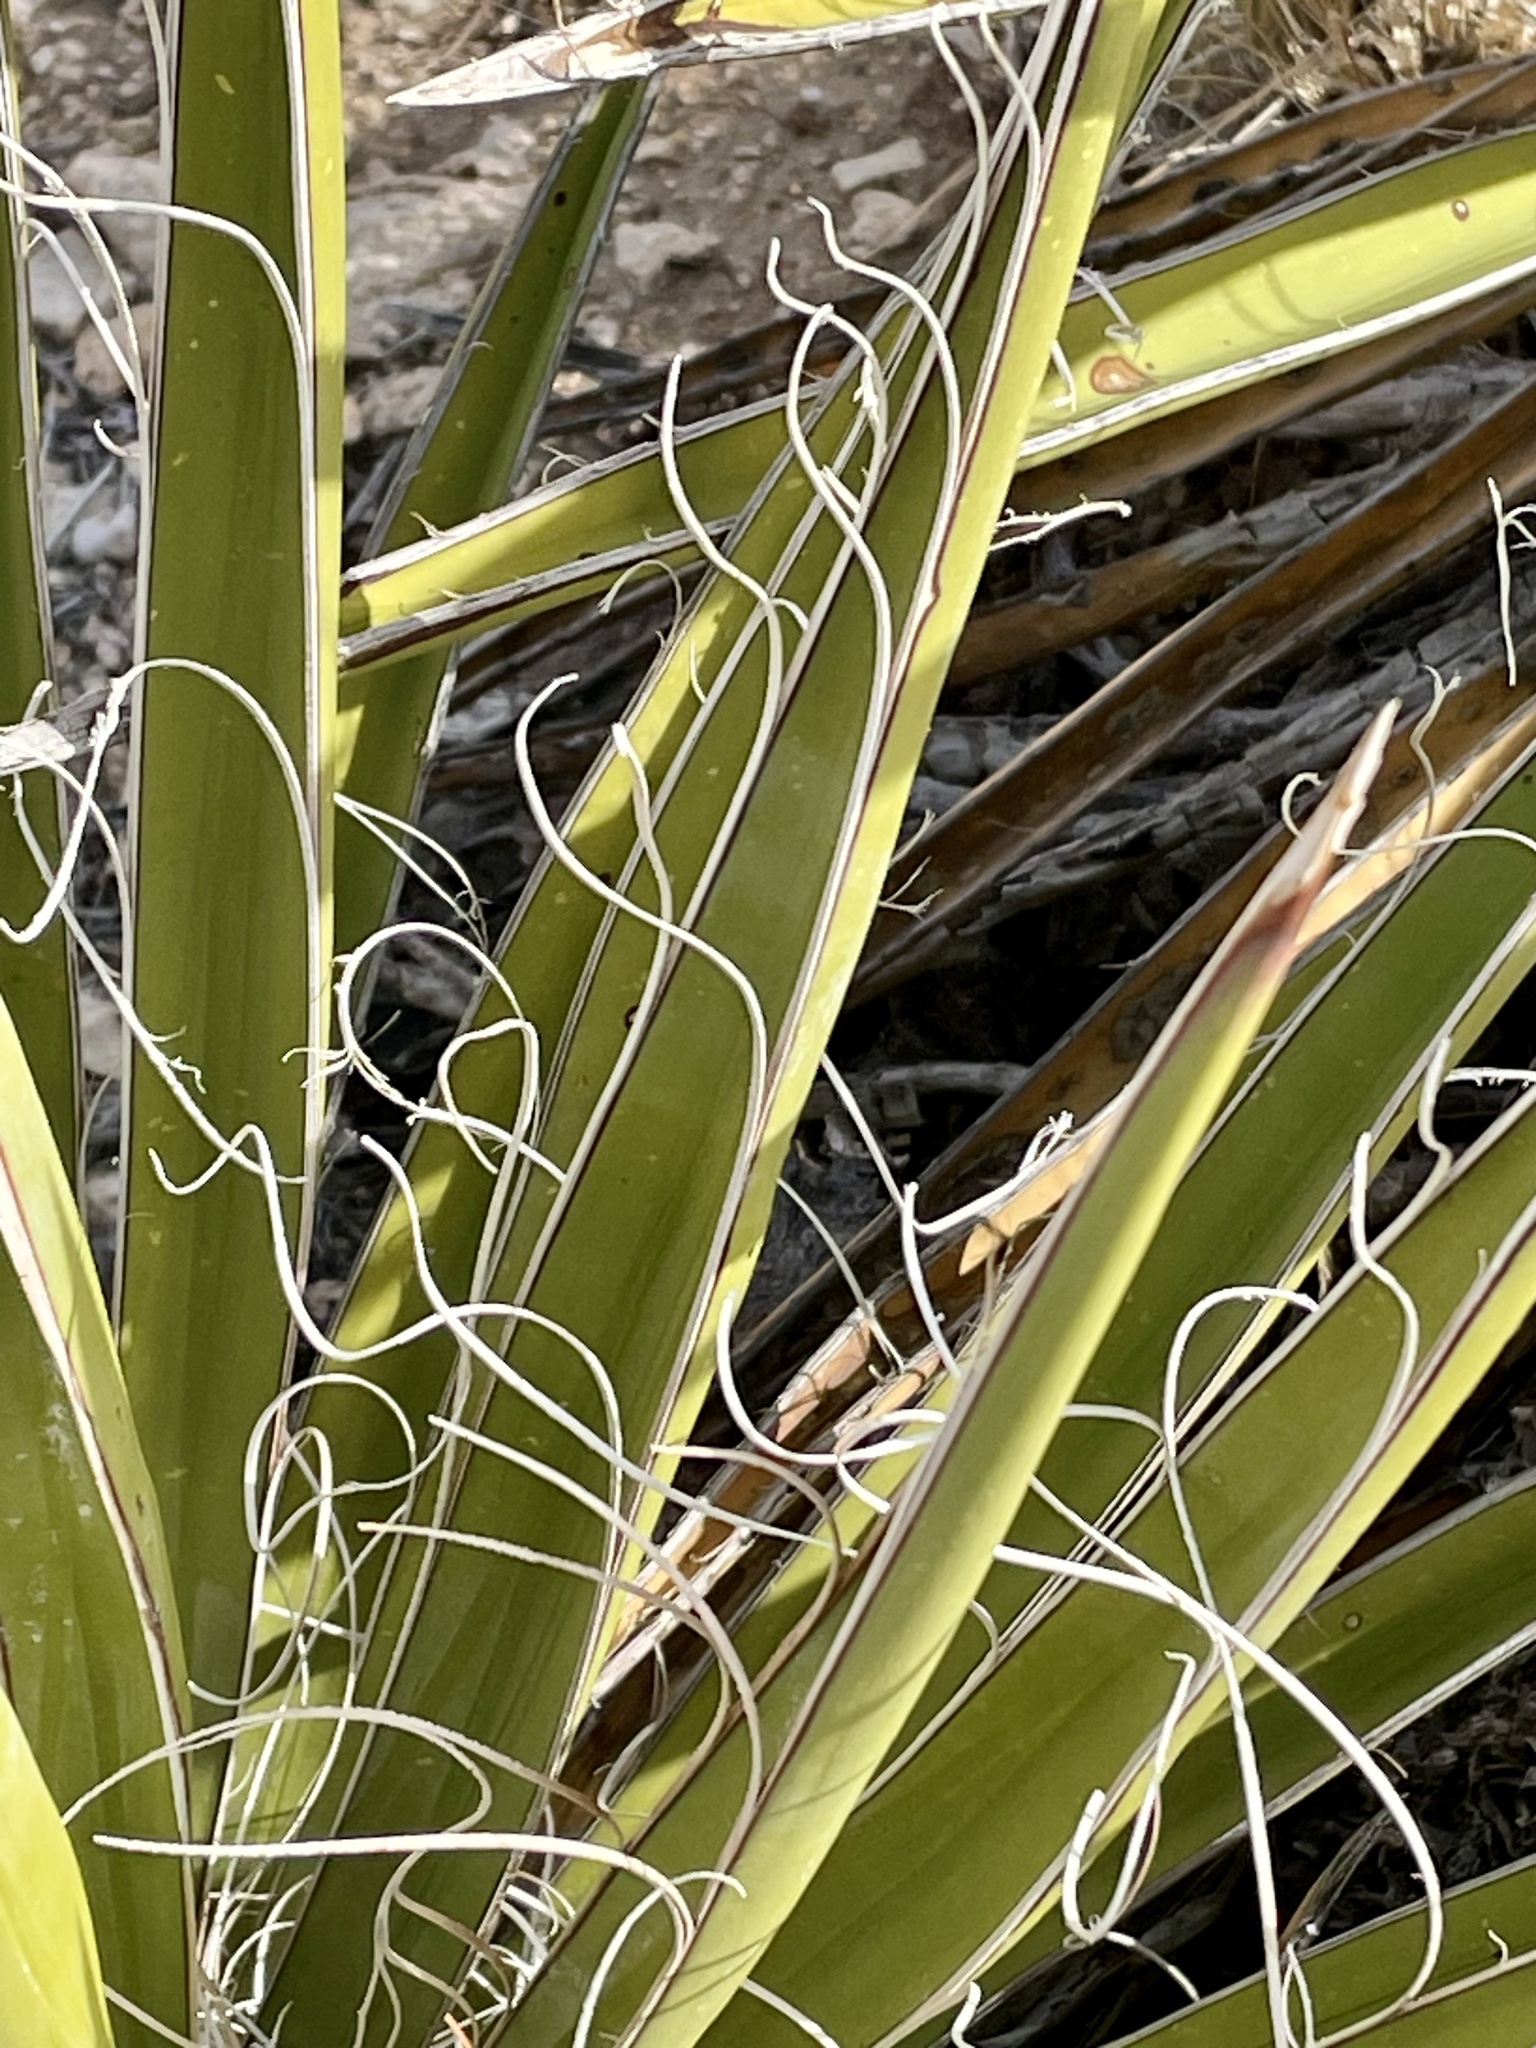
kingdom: Plantae
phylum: Tracheophyta
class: Liliopsida
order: Asparagales
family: Asparagaceae
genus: Yucca
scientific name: Yucca schidigera
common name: Mojave yucca
